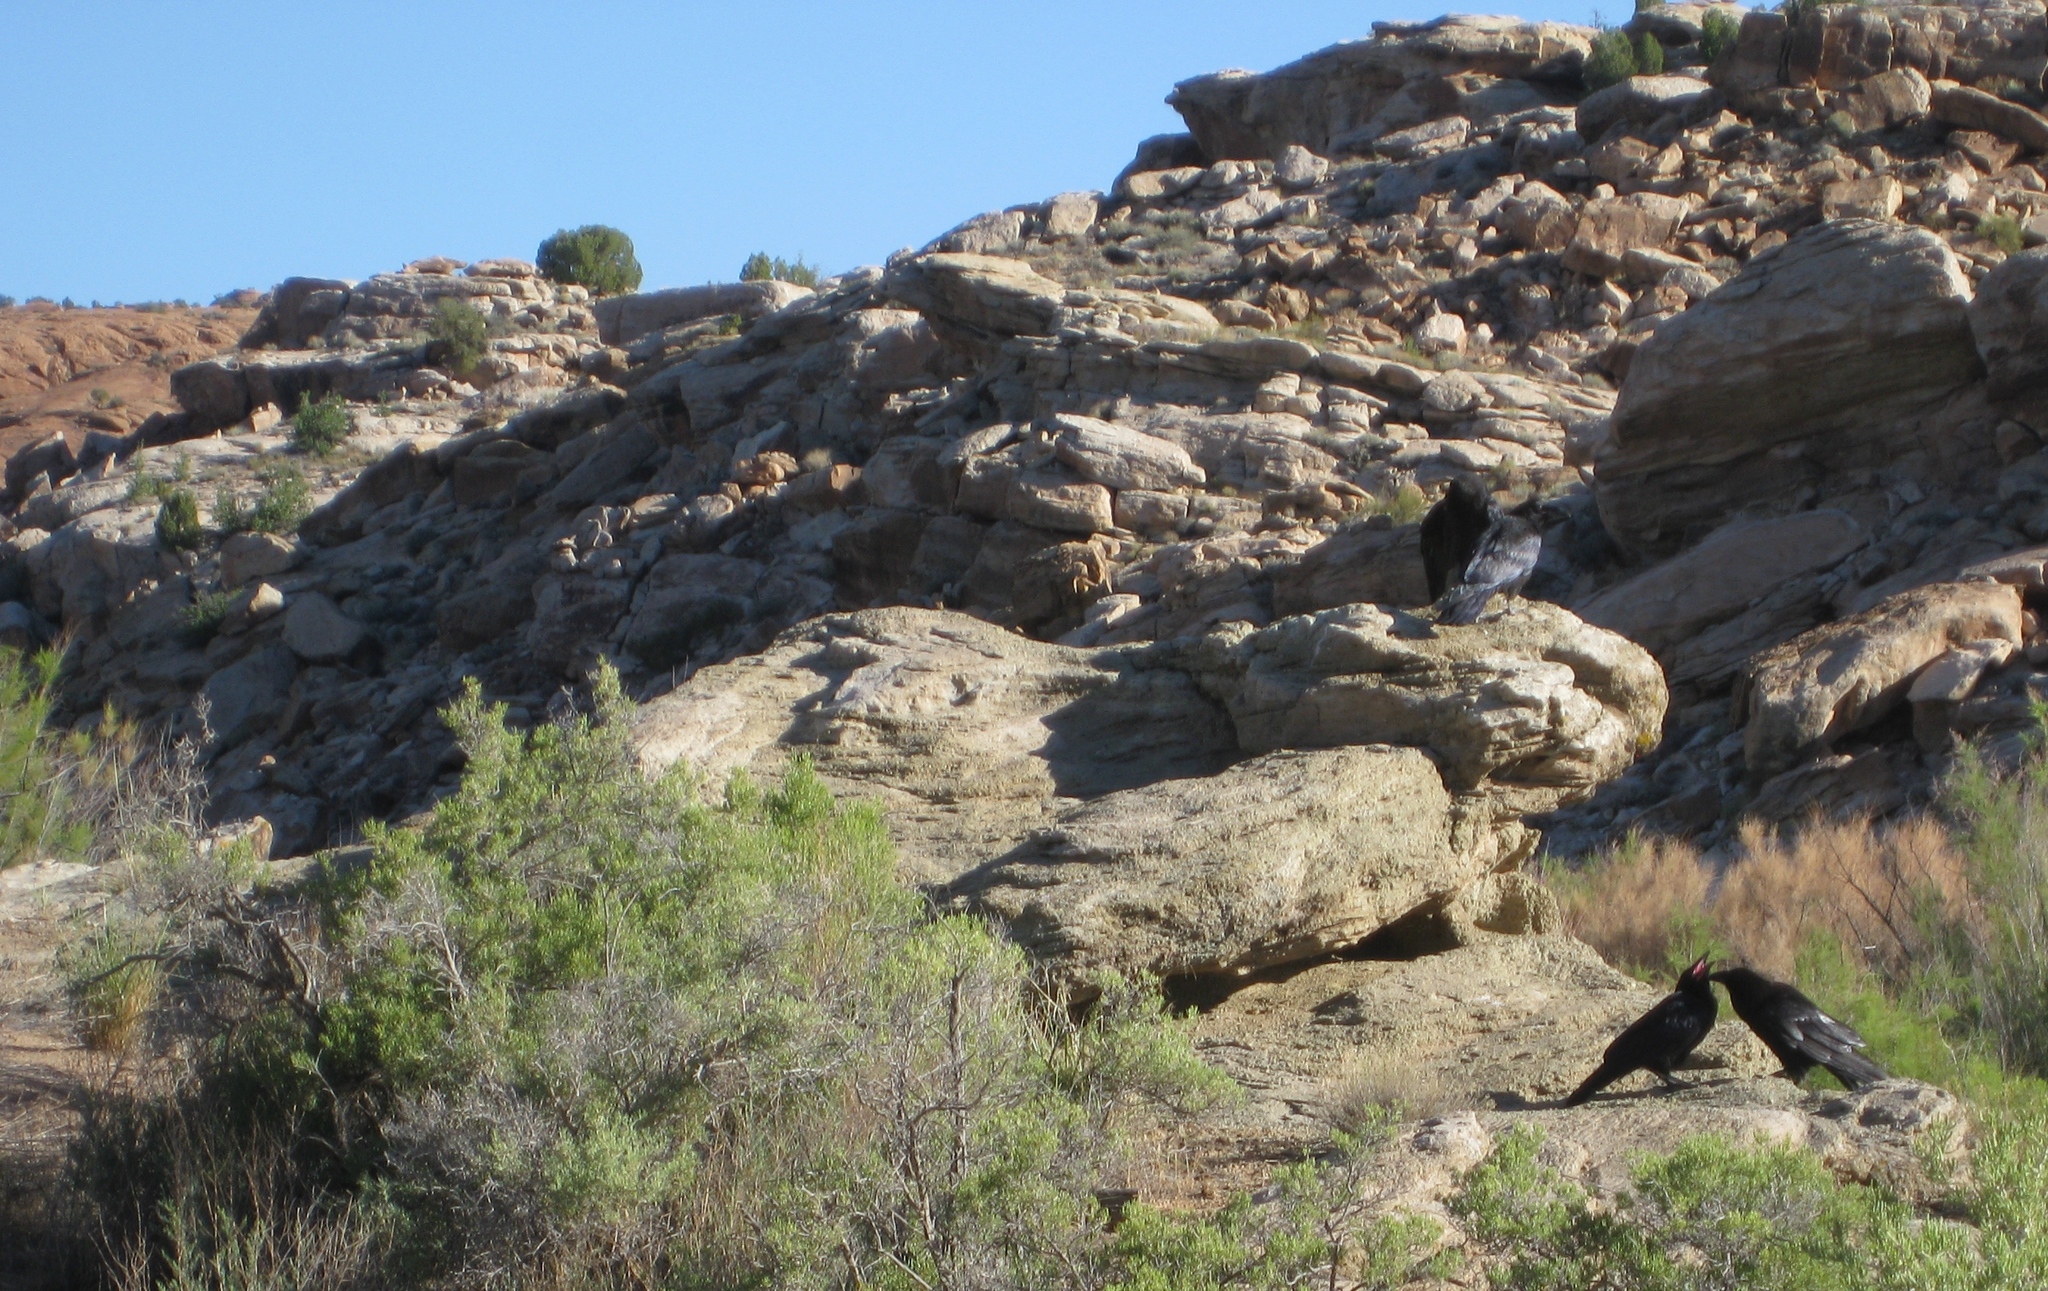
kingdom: Animalia
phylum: Chordata
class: Aves
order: Passeriformes
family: Corvidae
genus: Corvus
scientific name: Corvus corax
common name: Common raven
